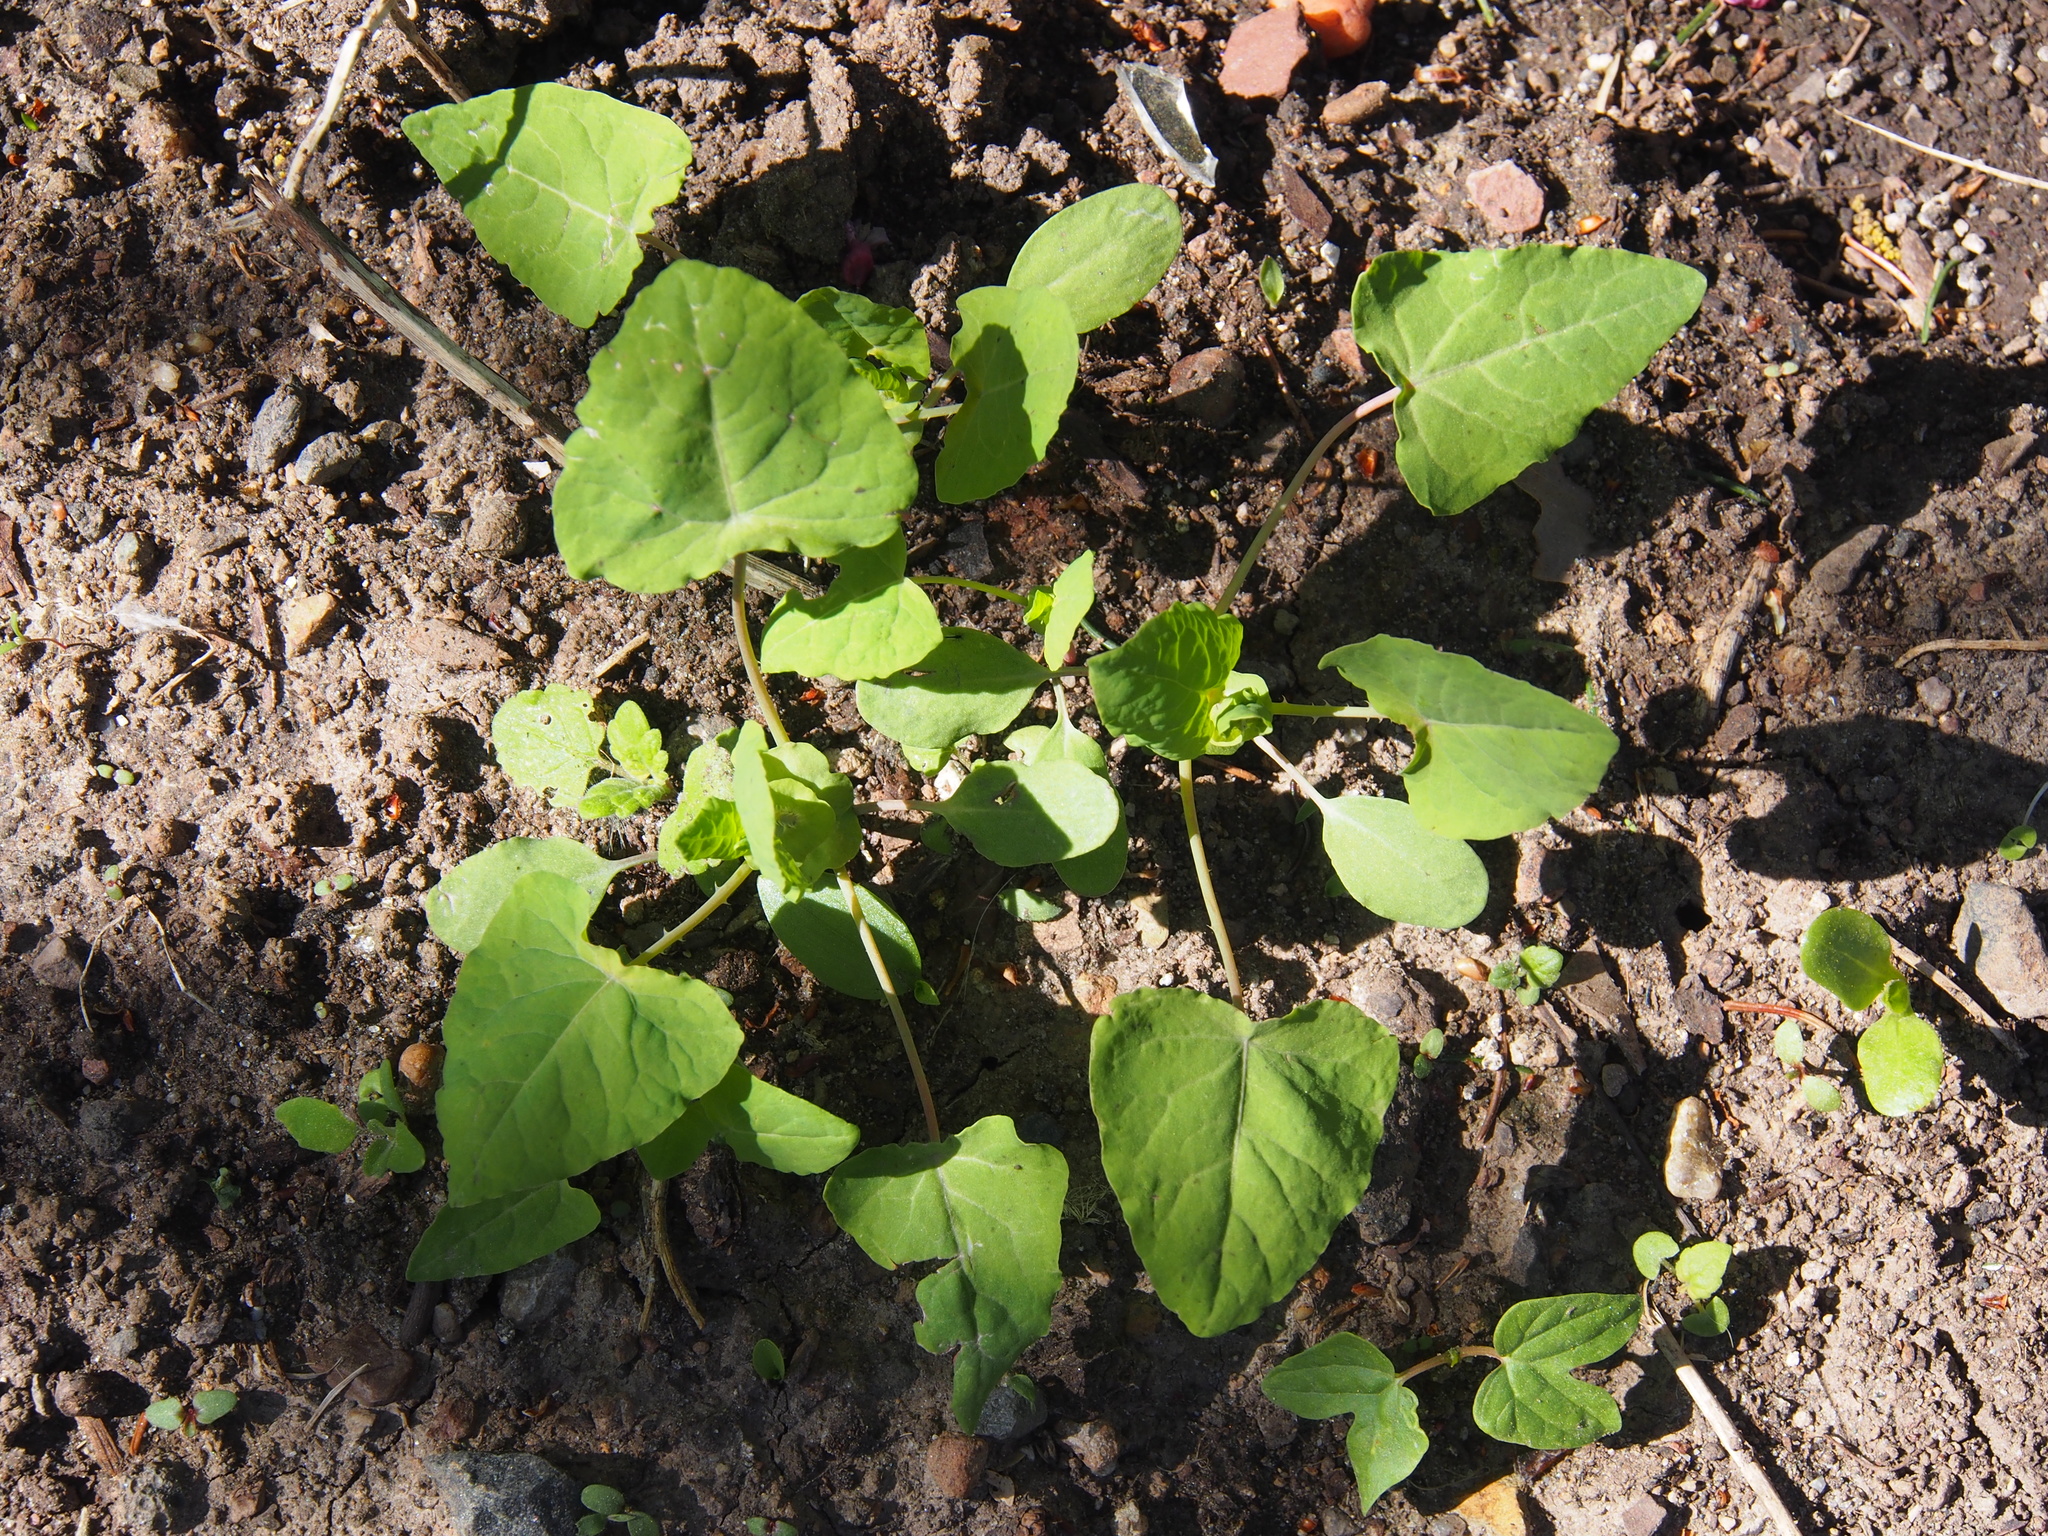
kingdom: Plantae
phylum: Tracheophyta
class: Magnoliopsida
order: Caryophyllales
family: Polygonaceae
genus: Persicaria
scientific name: Persicaria perfoliata
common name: Asiatic tearthumb
